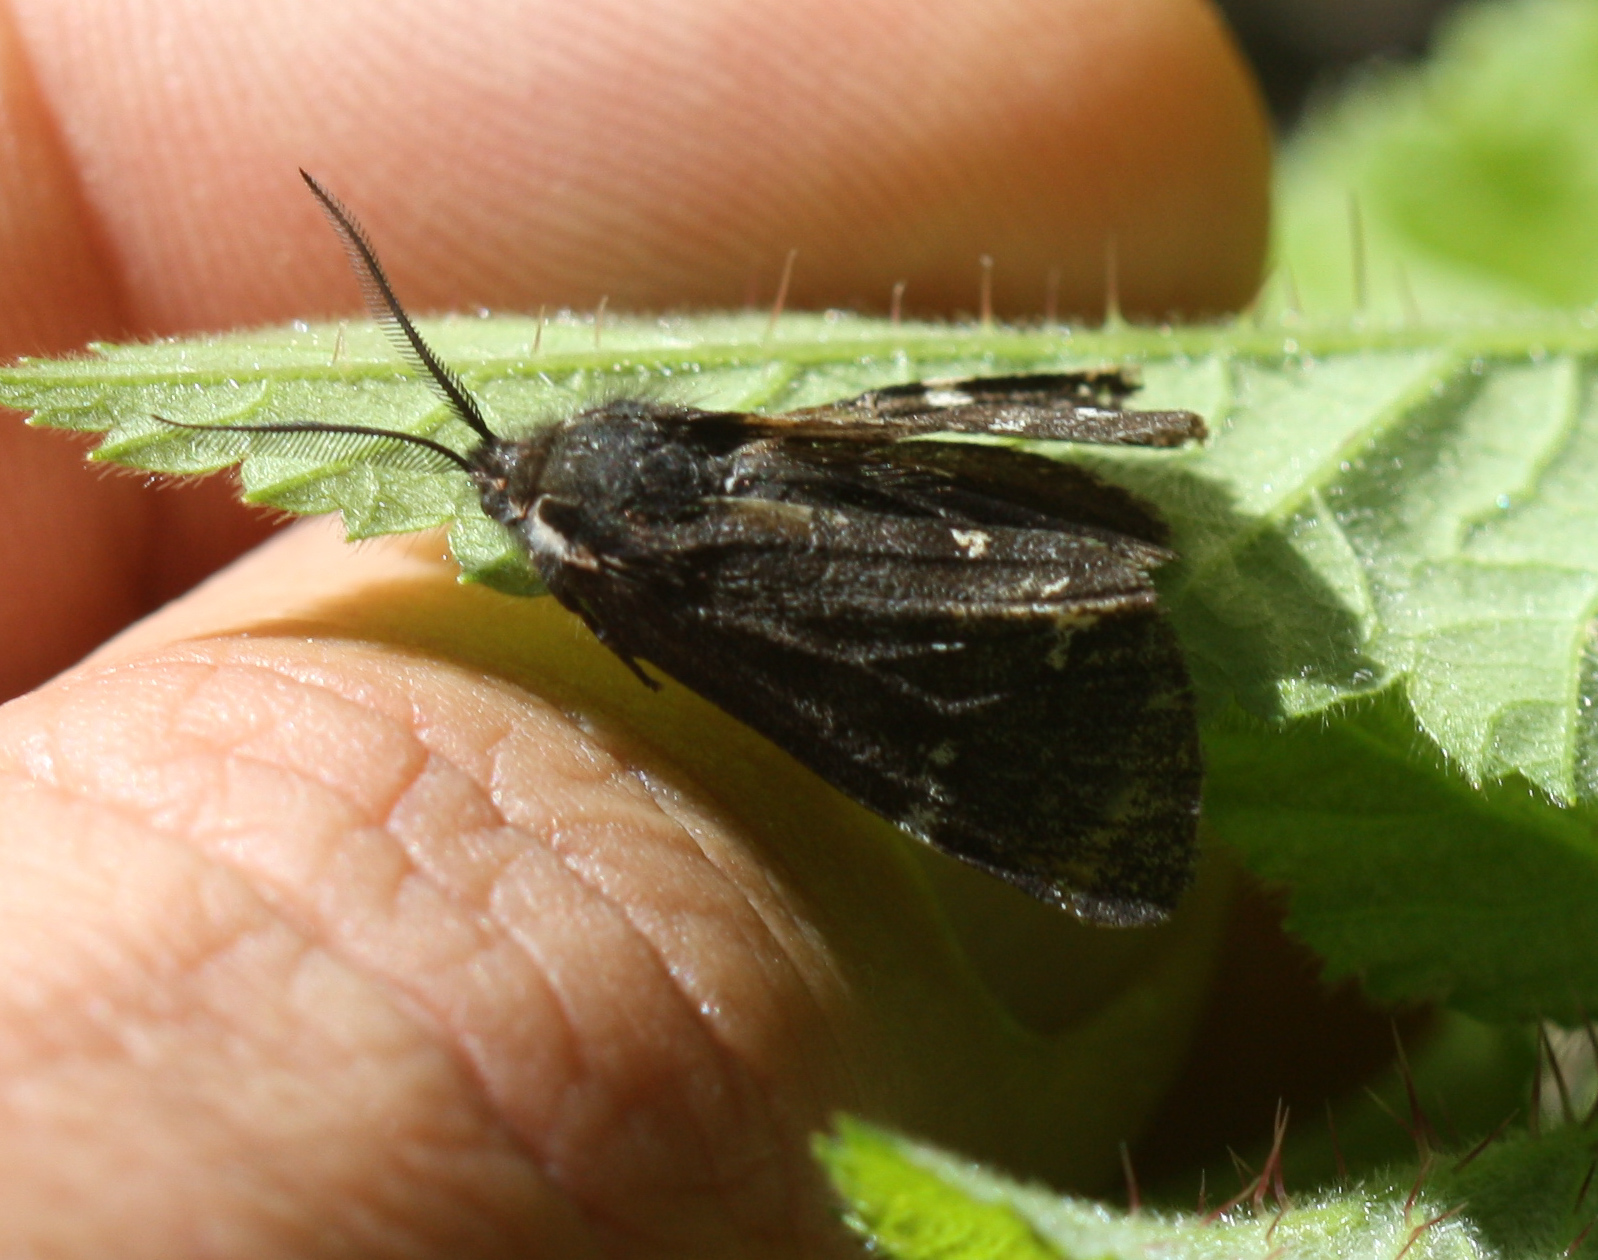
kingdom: Animalia
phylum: Arthropoda
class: Insecta
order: Lepidoptera
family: Erebidae
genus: Leptarctia
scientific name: Leptarctia californiae
